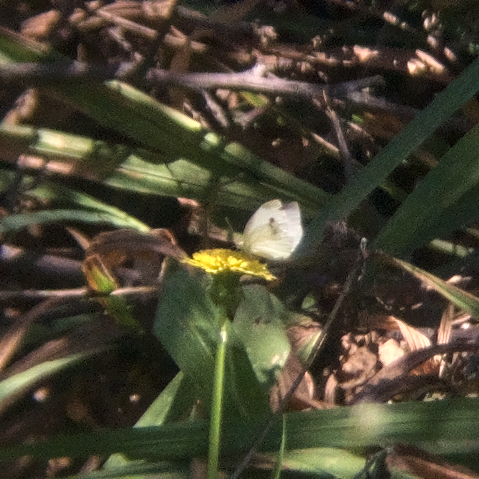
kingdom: Animalia
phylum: Arthropoda
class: Insecta
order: Lepidoptera
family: Pieridae
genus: Pieris
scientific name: Pieris rapae
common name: Small white
